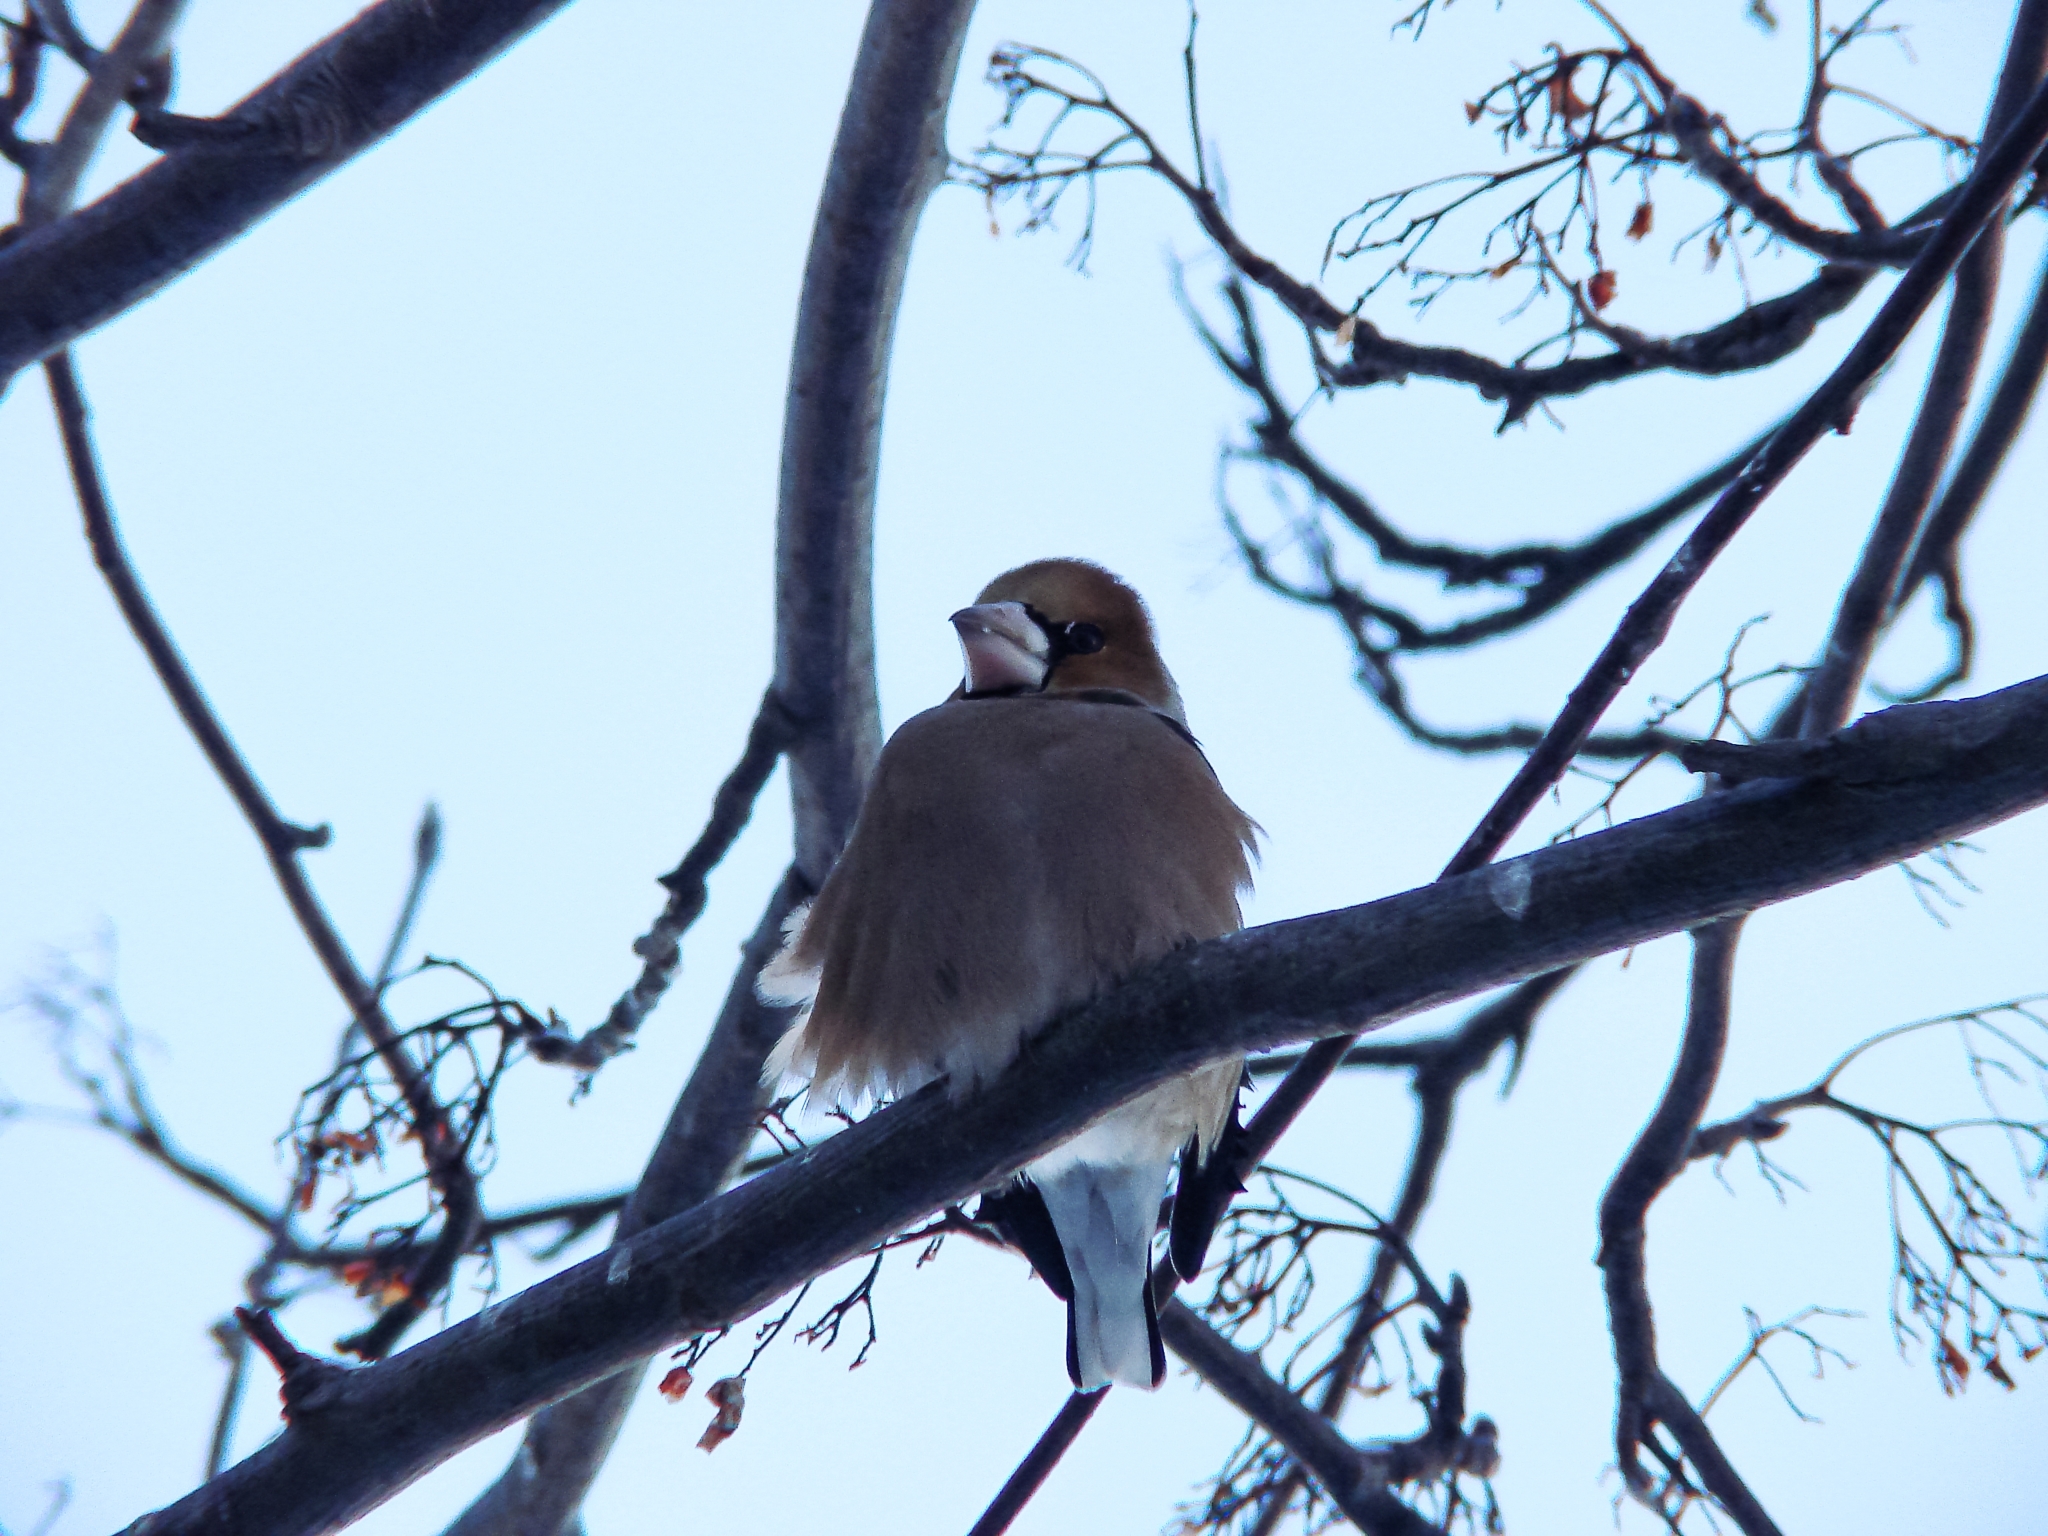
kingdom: Animalia
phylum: Chordata
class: Aves
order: Passeriformes
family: Fringillidae
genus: Coccothraustes
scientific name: Coccothraustes coccothraustes
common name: Hawfinch
